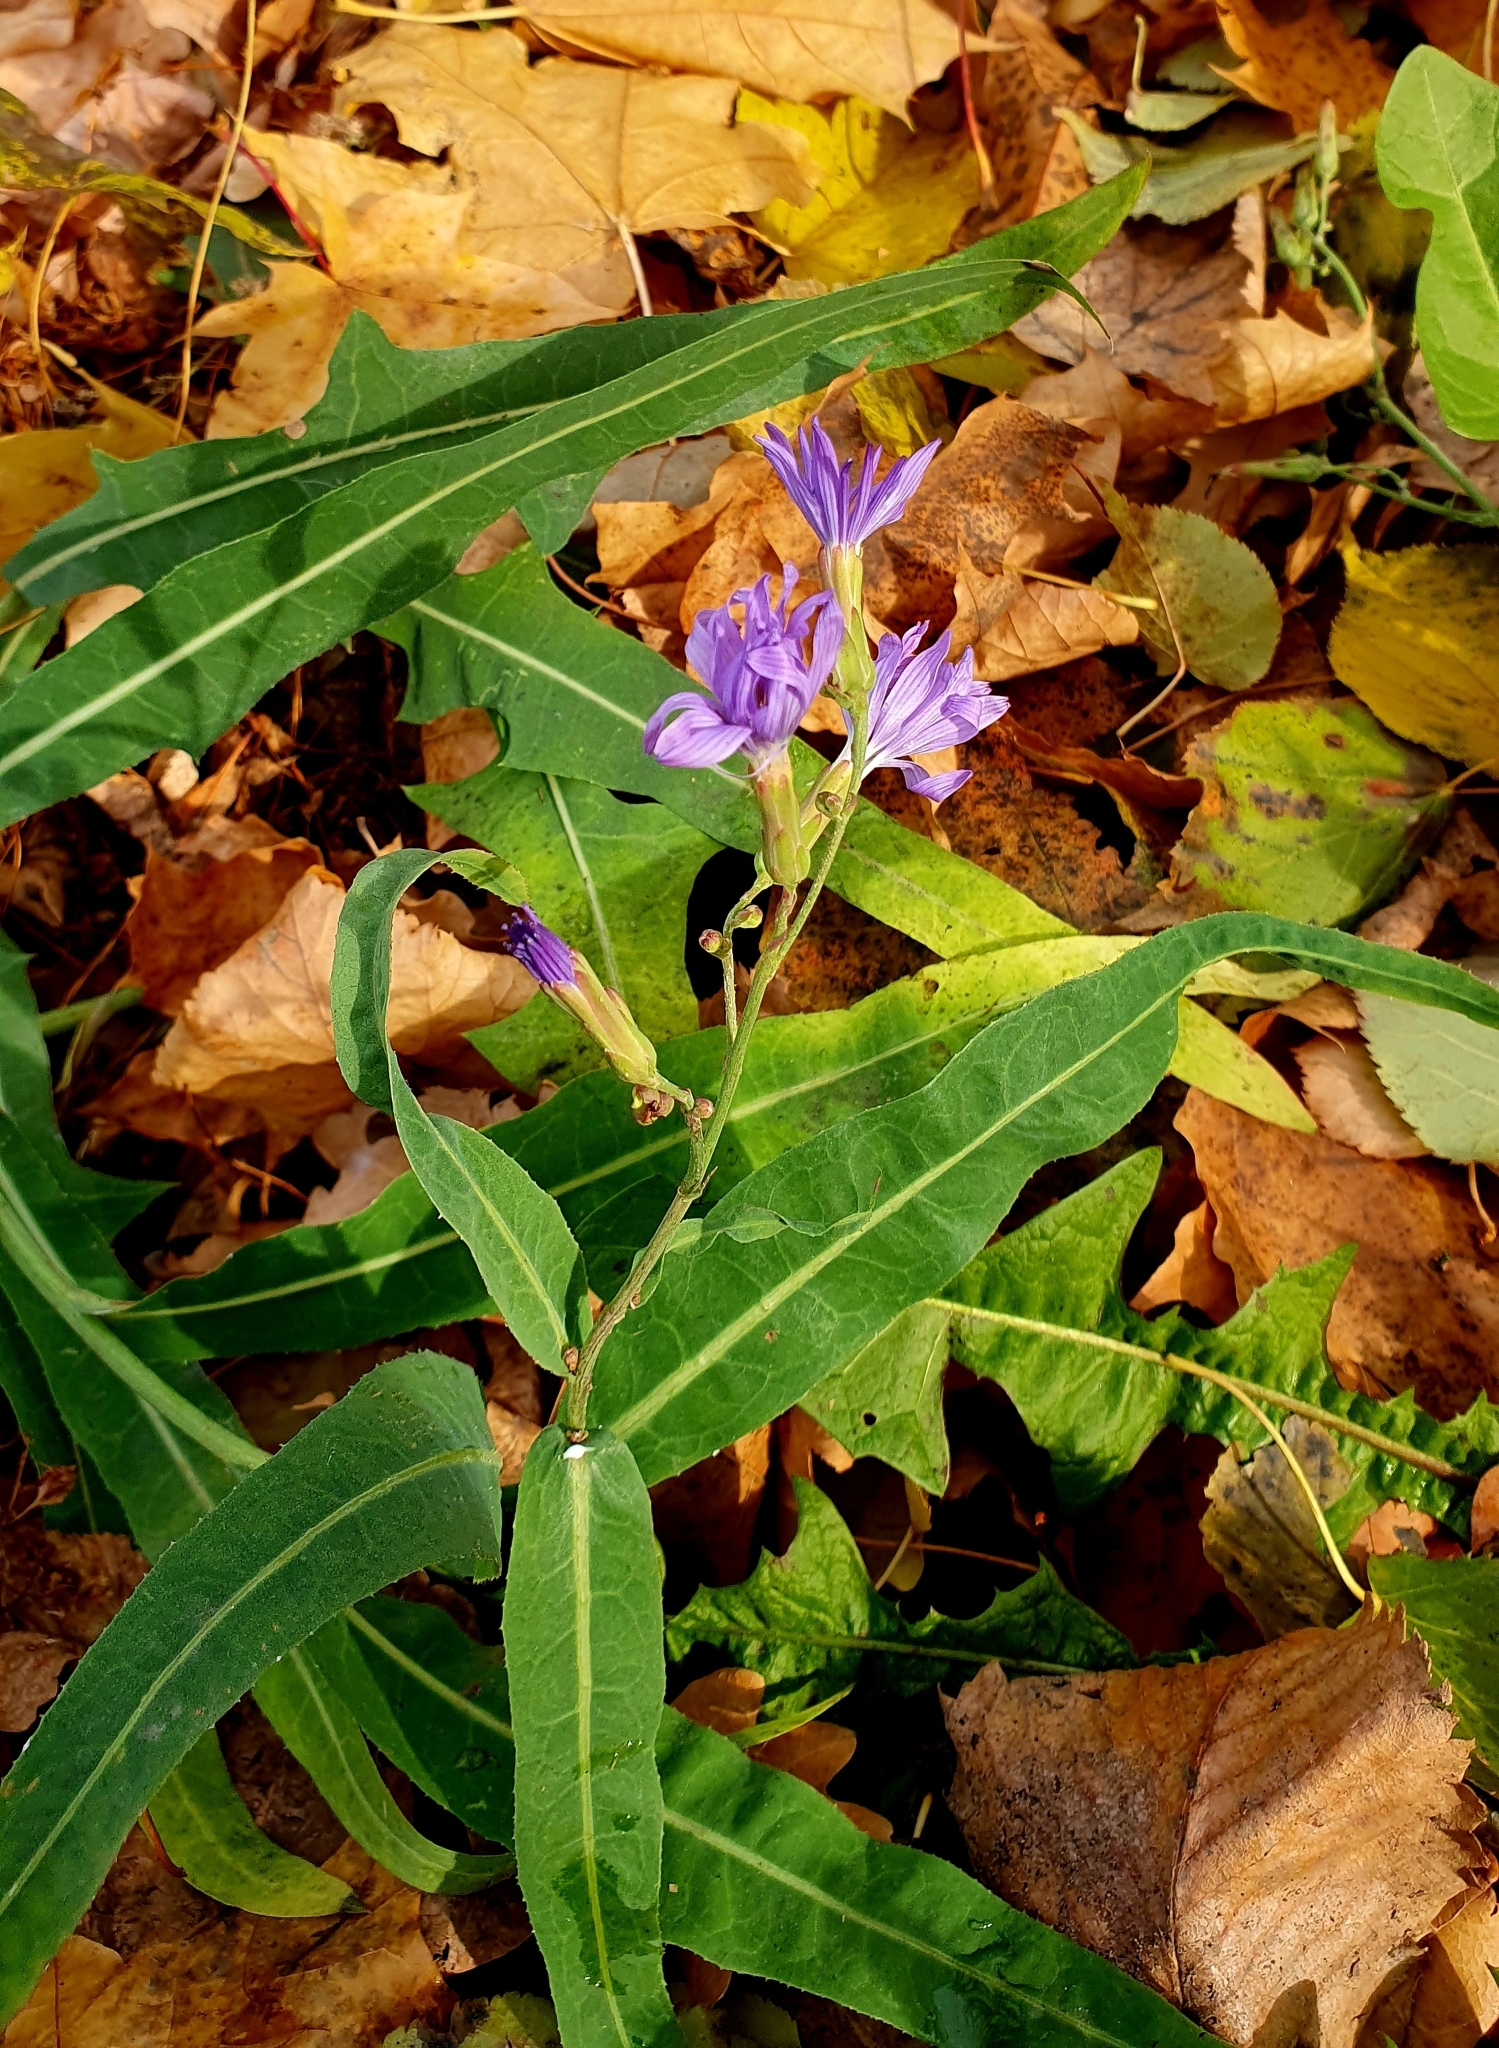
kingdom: Plantae
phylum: Tracheophyta
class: Magnoliopsida
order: Asterales
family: Asteraceae
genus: Lactuca
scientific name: Lactuca tatarica
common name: Blue lettuce
